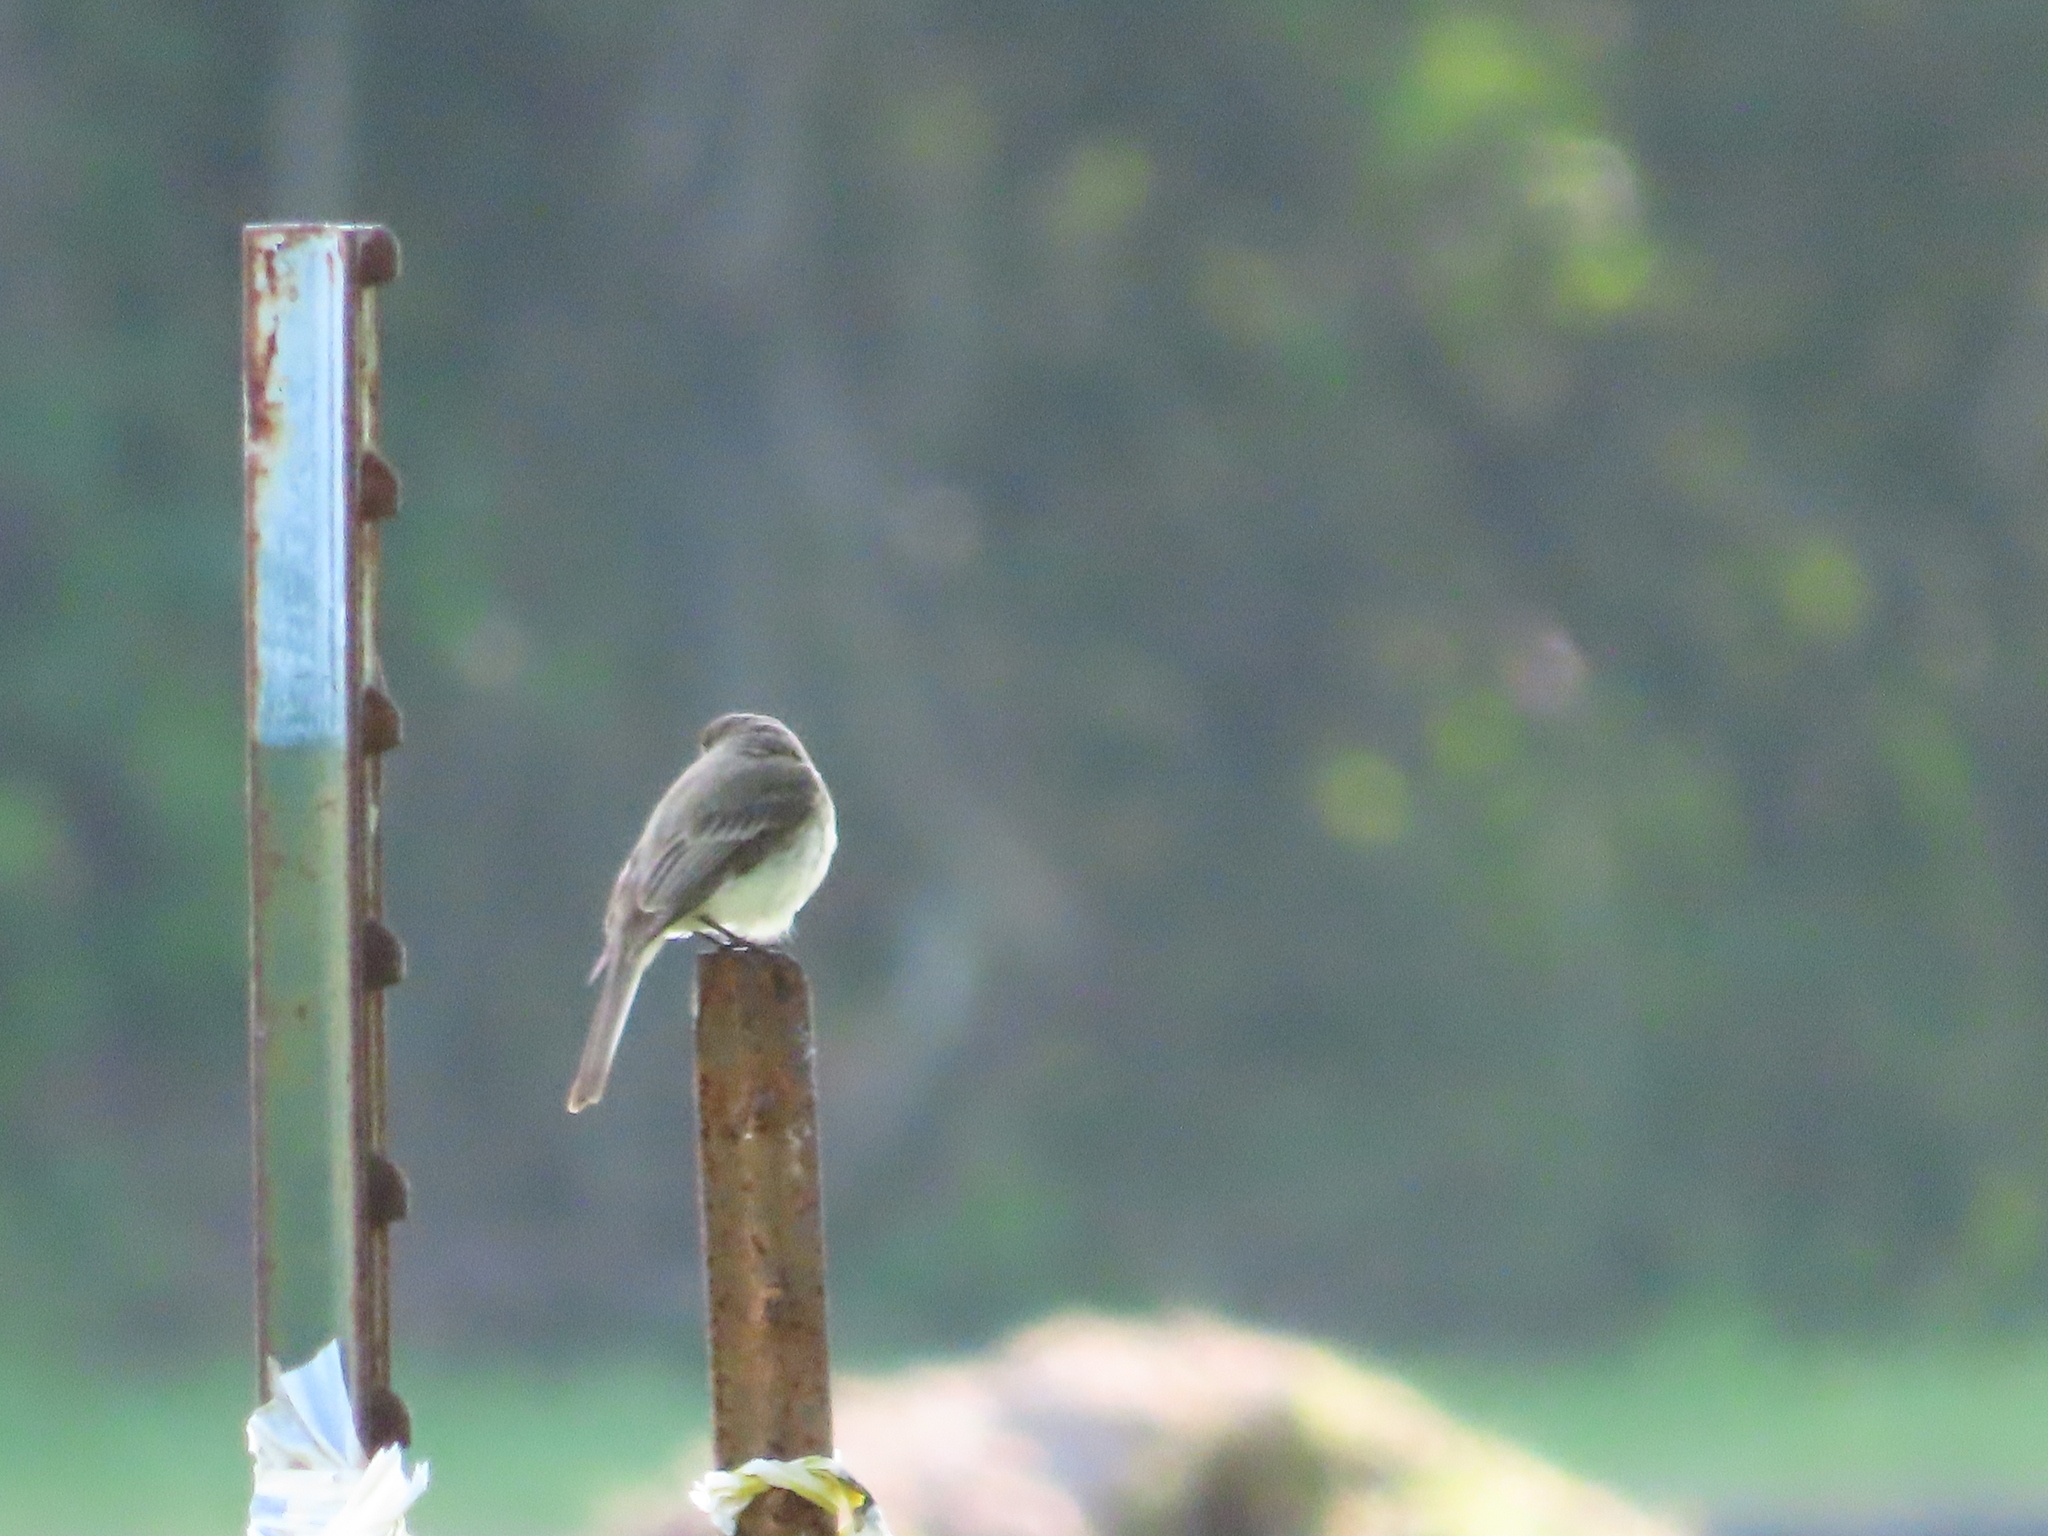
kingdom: Animalia
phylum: Chordata
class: Aves
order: Passeriformes
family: Tyrannidae
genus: Sayornis
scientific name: Sayornis phoebe
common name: Eastern phoebe
